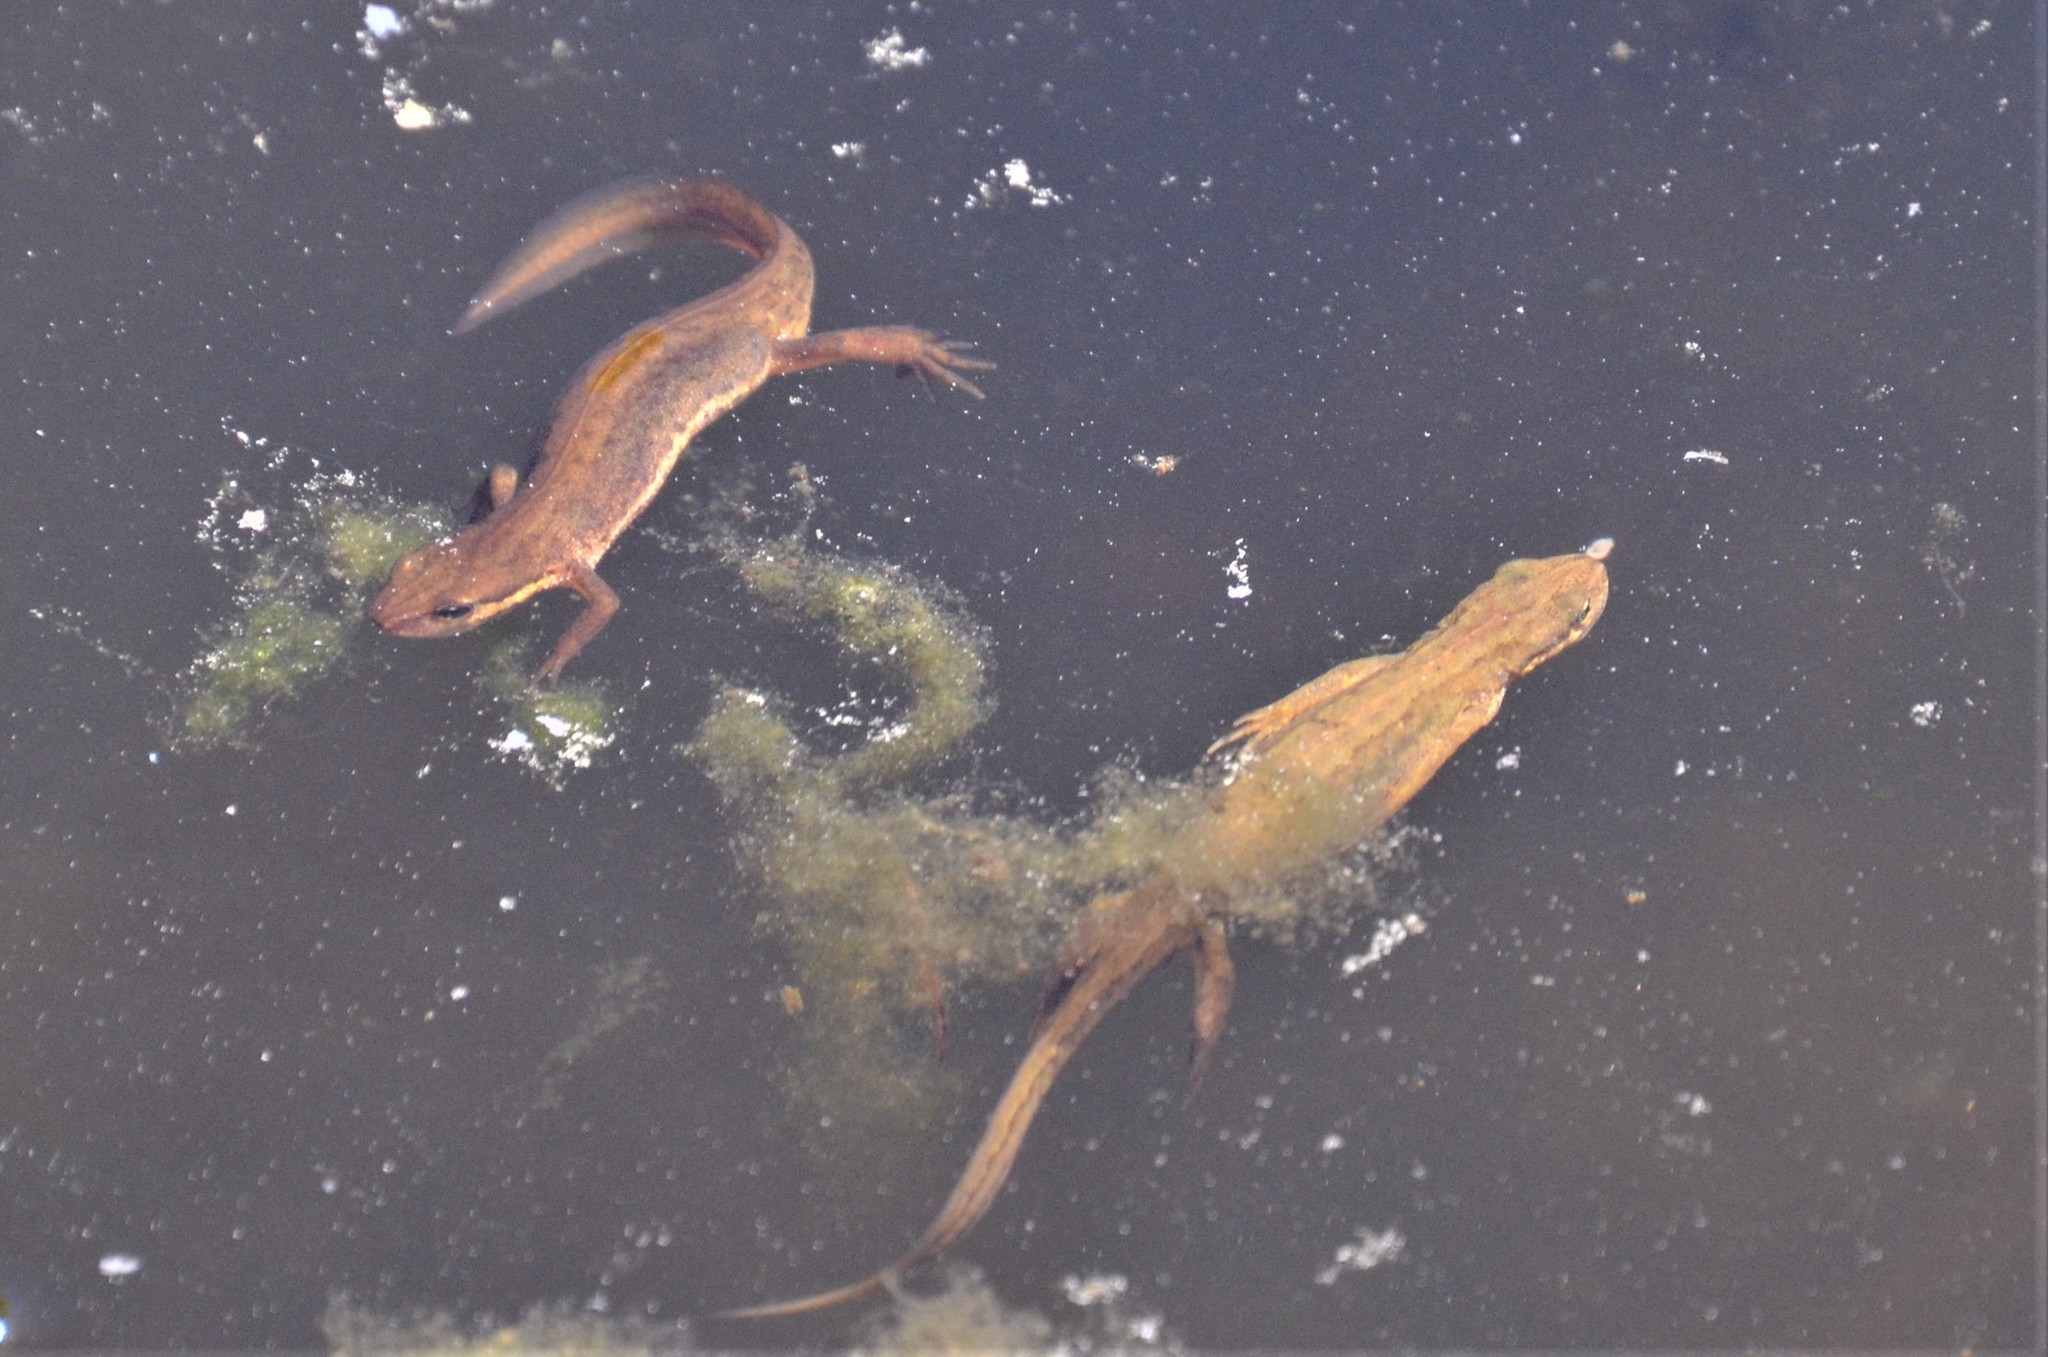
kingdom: Animalia
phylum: Chordata
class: Amphibia
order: Caudata
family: Salamandridae
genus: Lissotriton
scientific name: Lissotriton vulgaris
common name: Smooth newt
